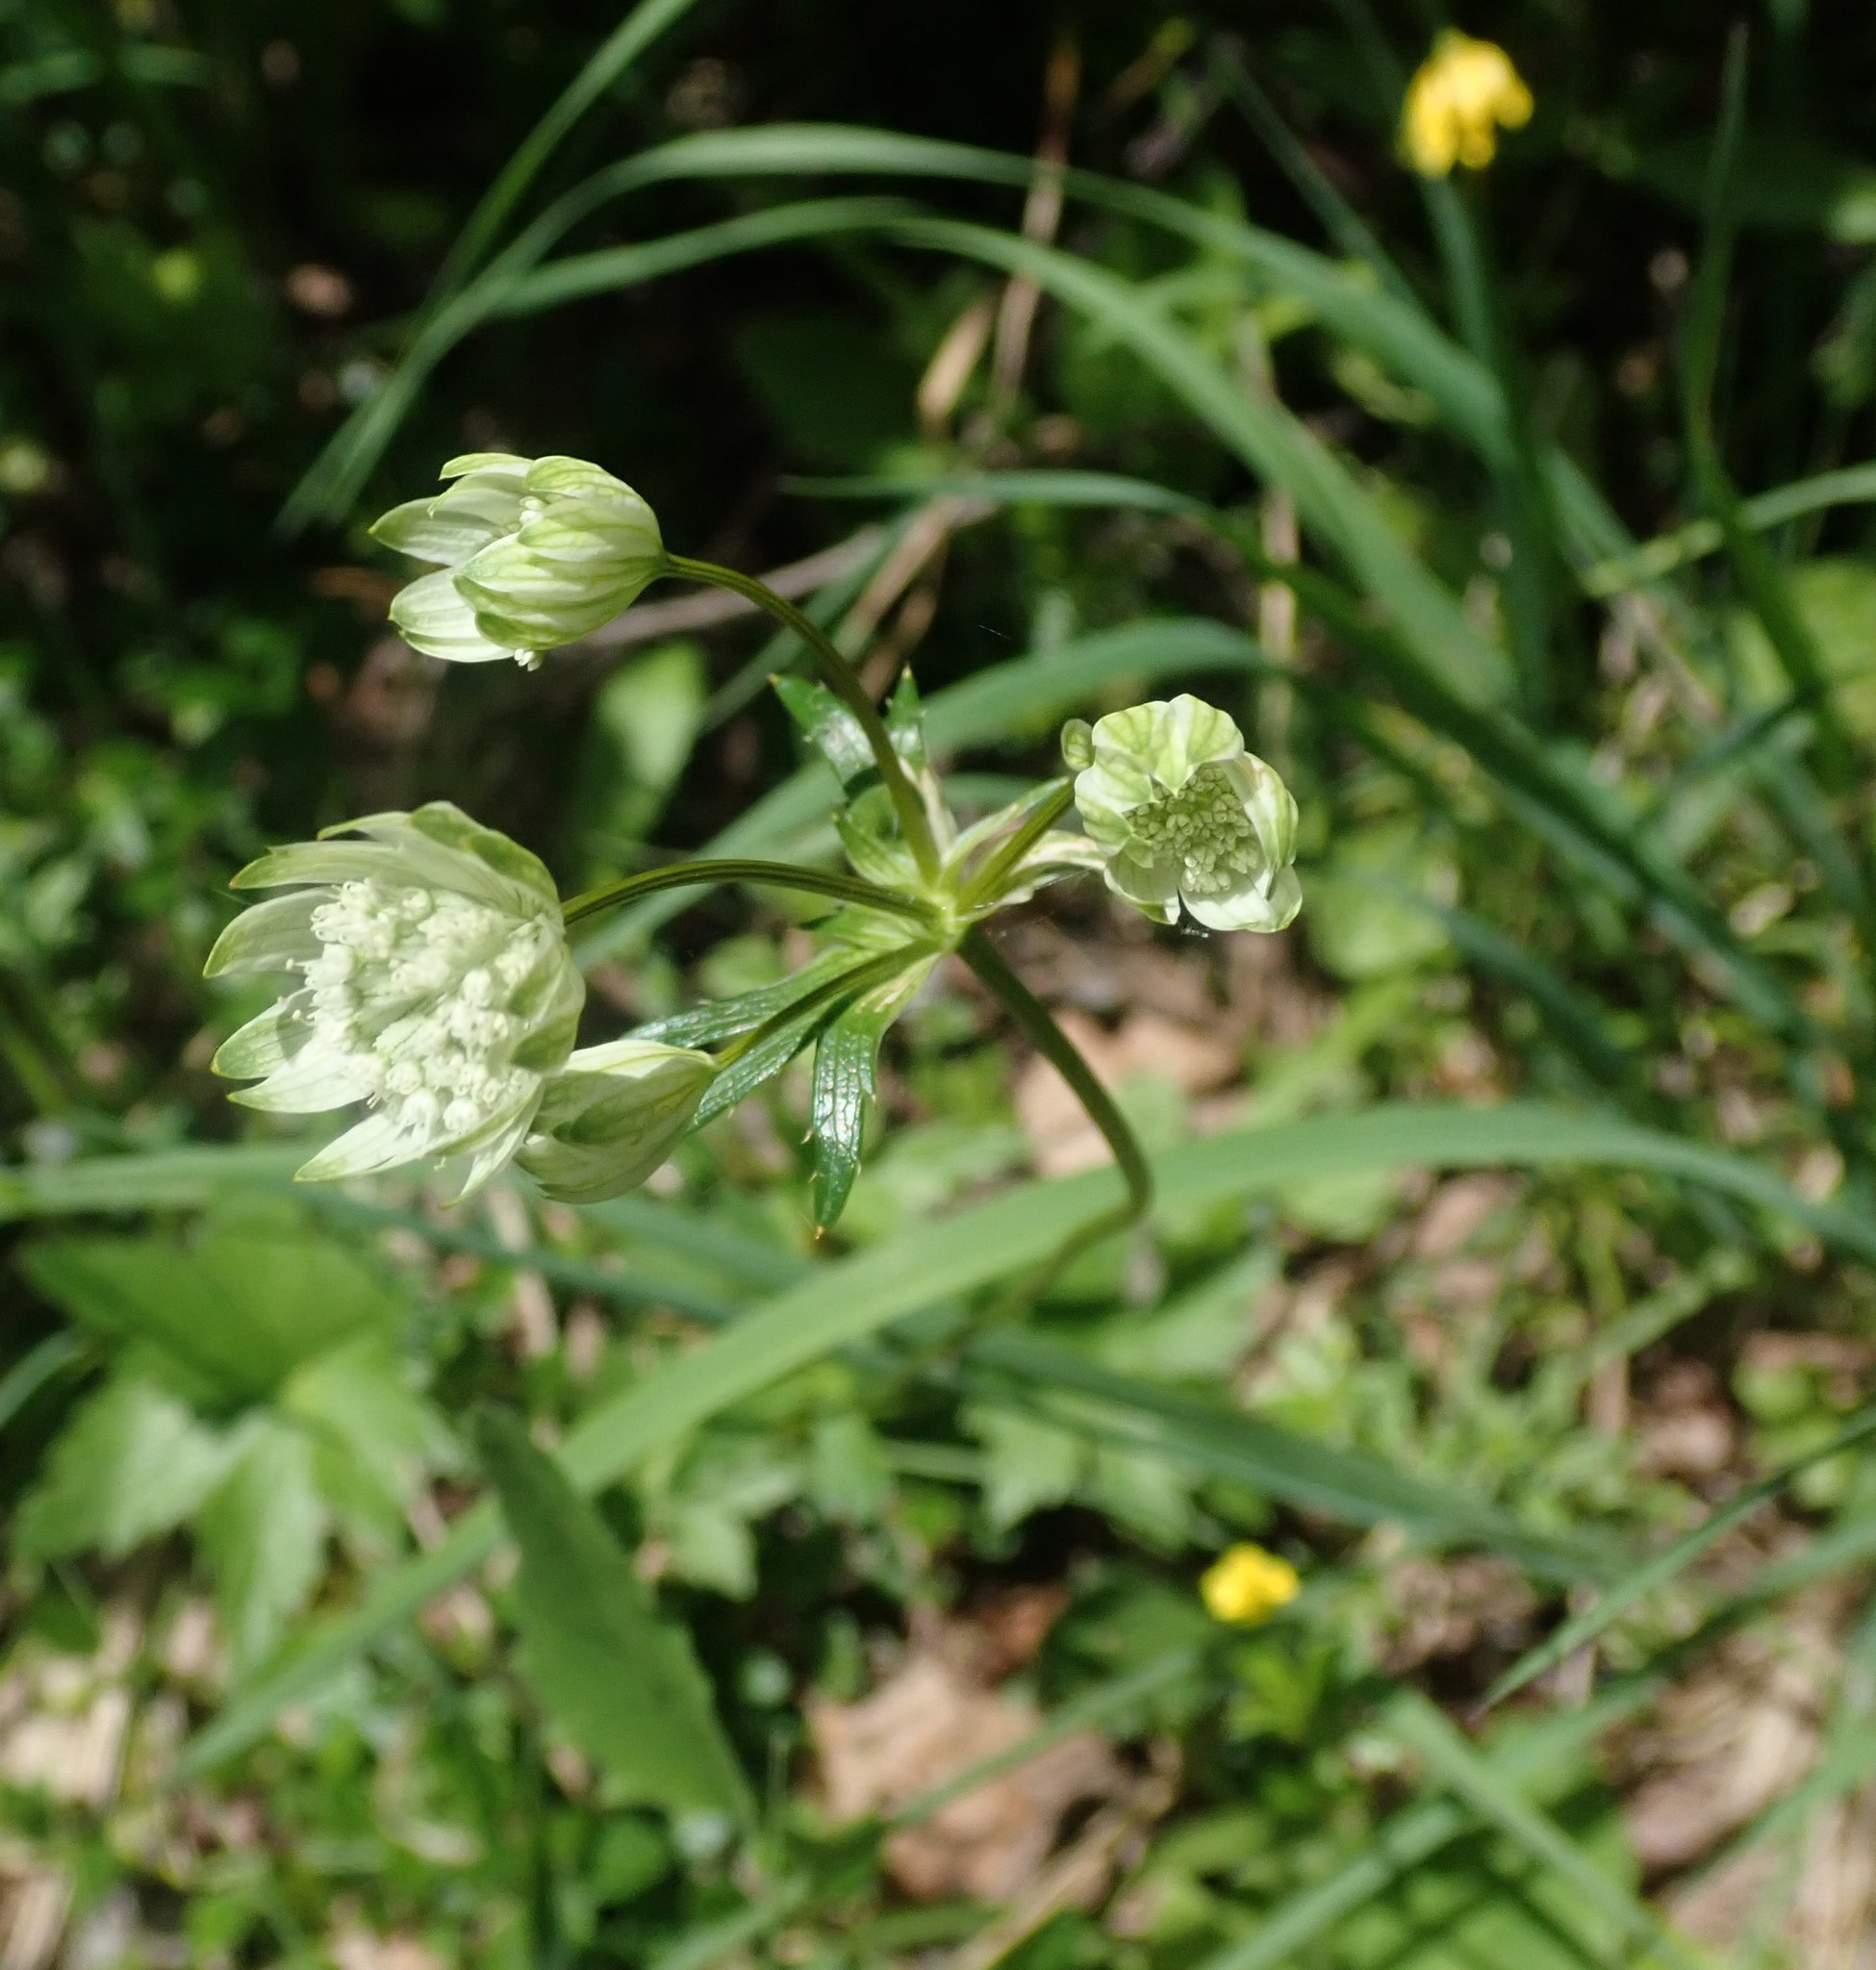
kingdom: Plantae
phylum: Tracheophyta
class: Magnoliopsida
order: Apiales
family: Apiaceae
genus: Astrantia
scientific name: Astrantia major
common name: Greater masterwort
